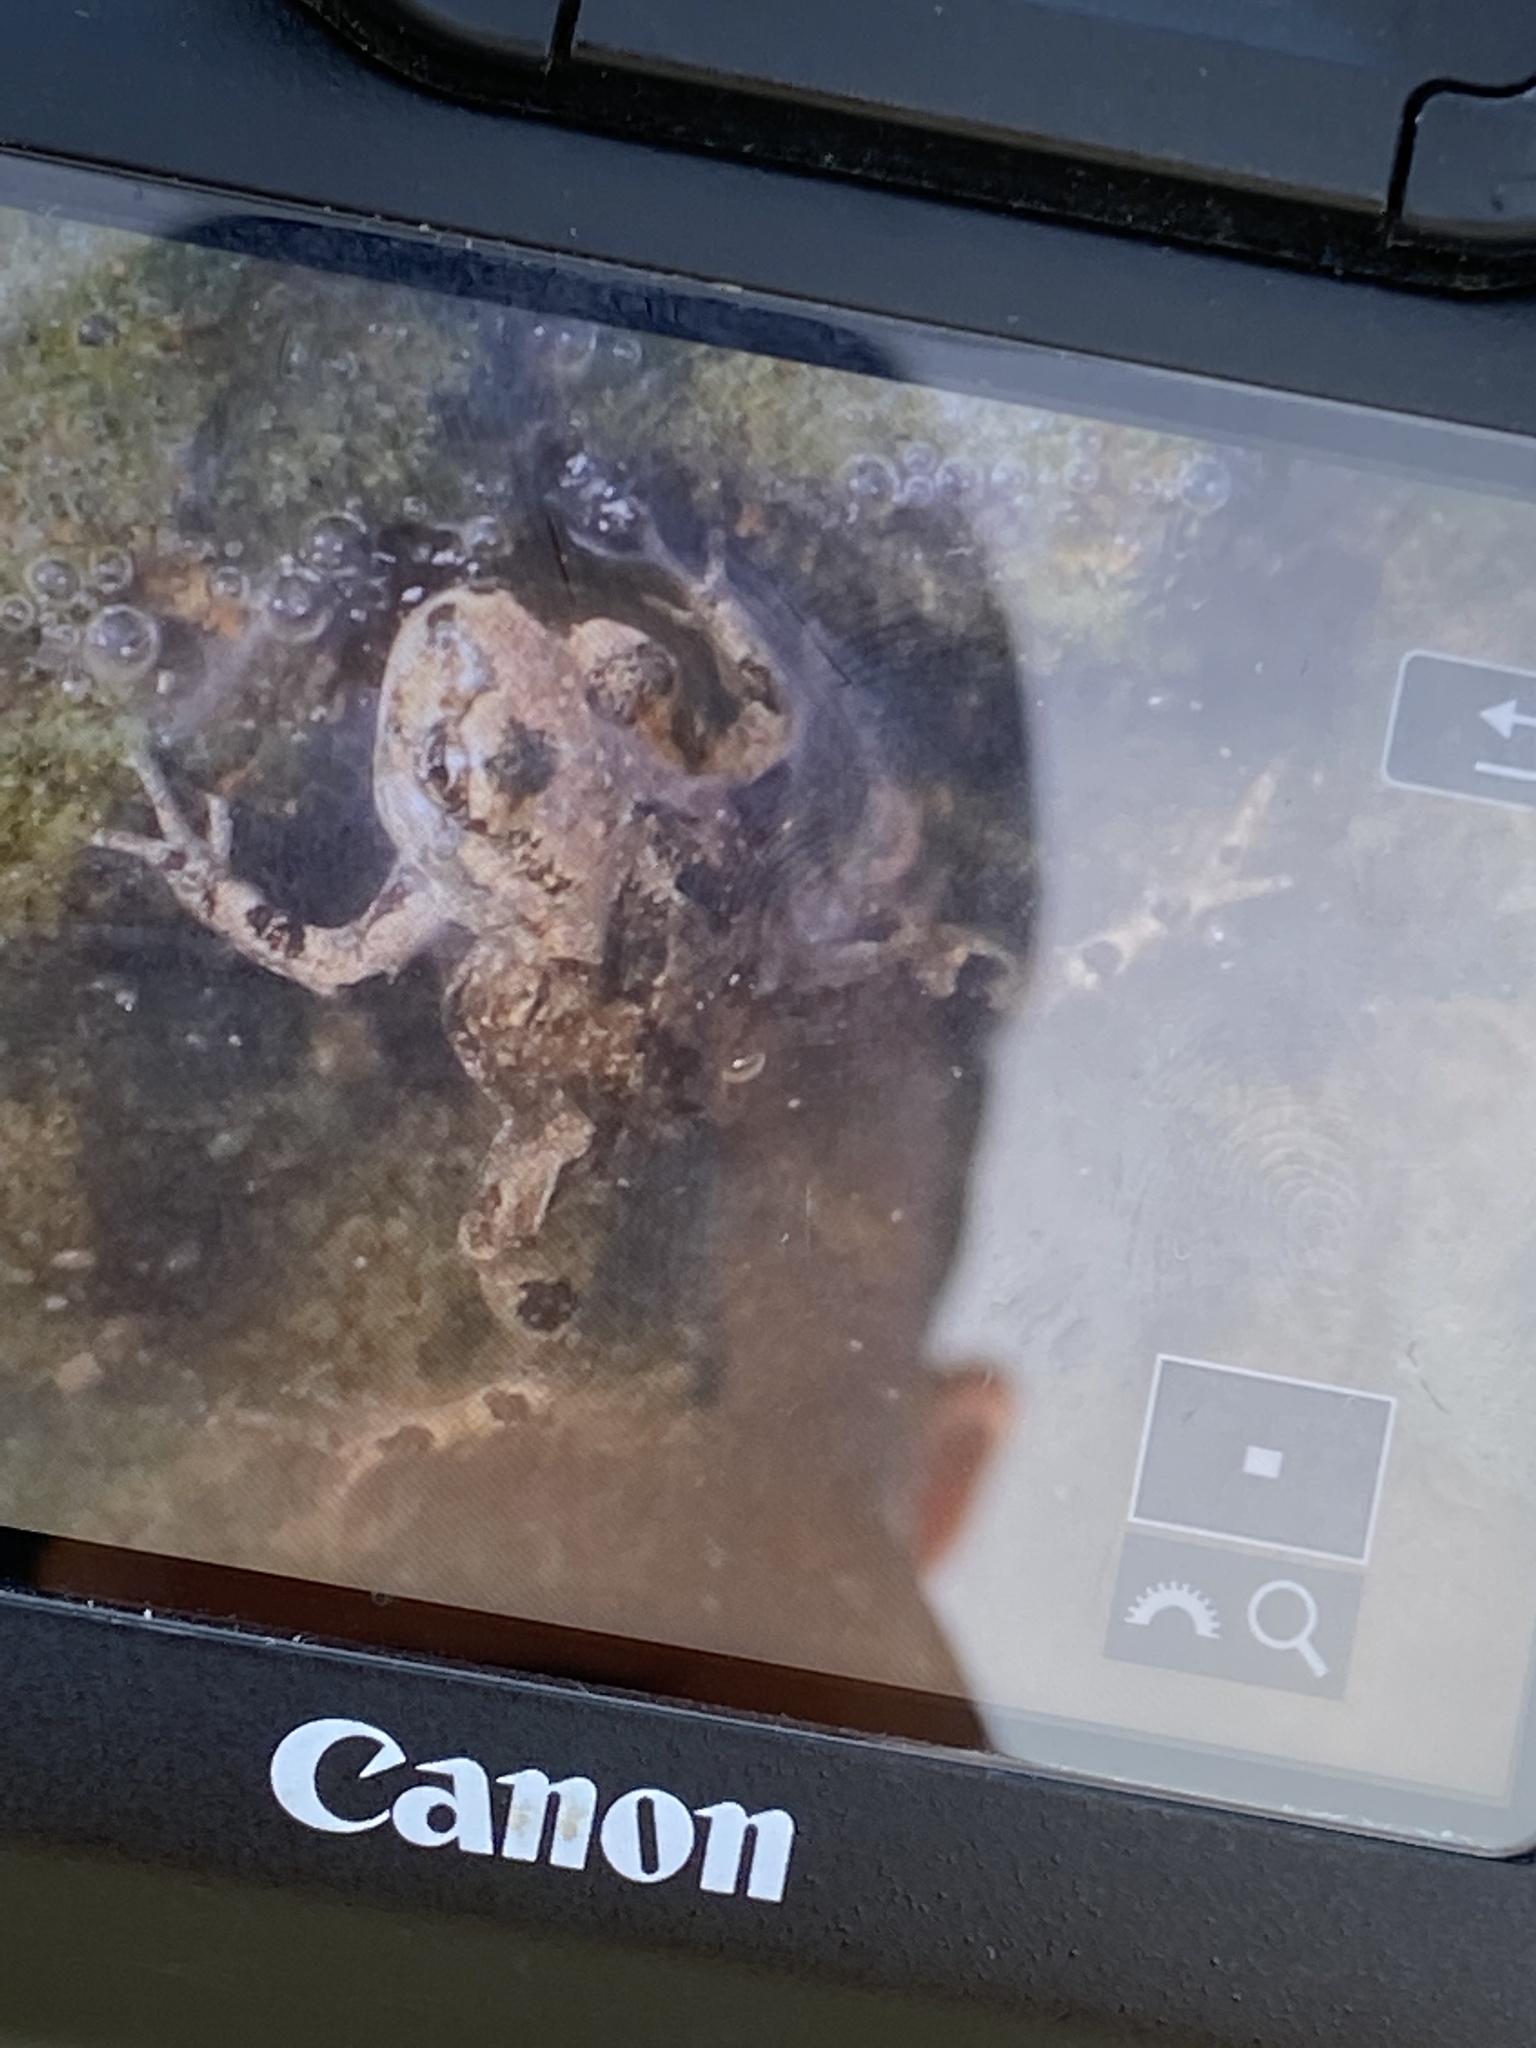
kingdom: Animalia
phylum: Chordata
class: Amphibia
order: Anura
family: Bufonidae
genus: Bufotes
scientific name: Bufotes boulengeri
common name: African green toad
